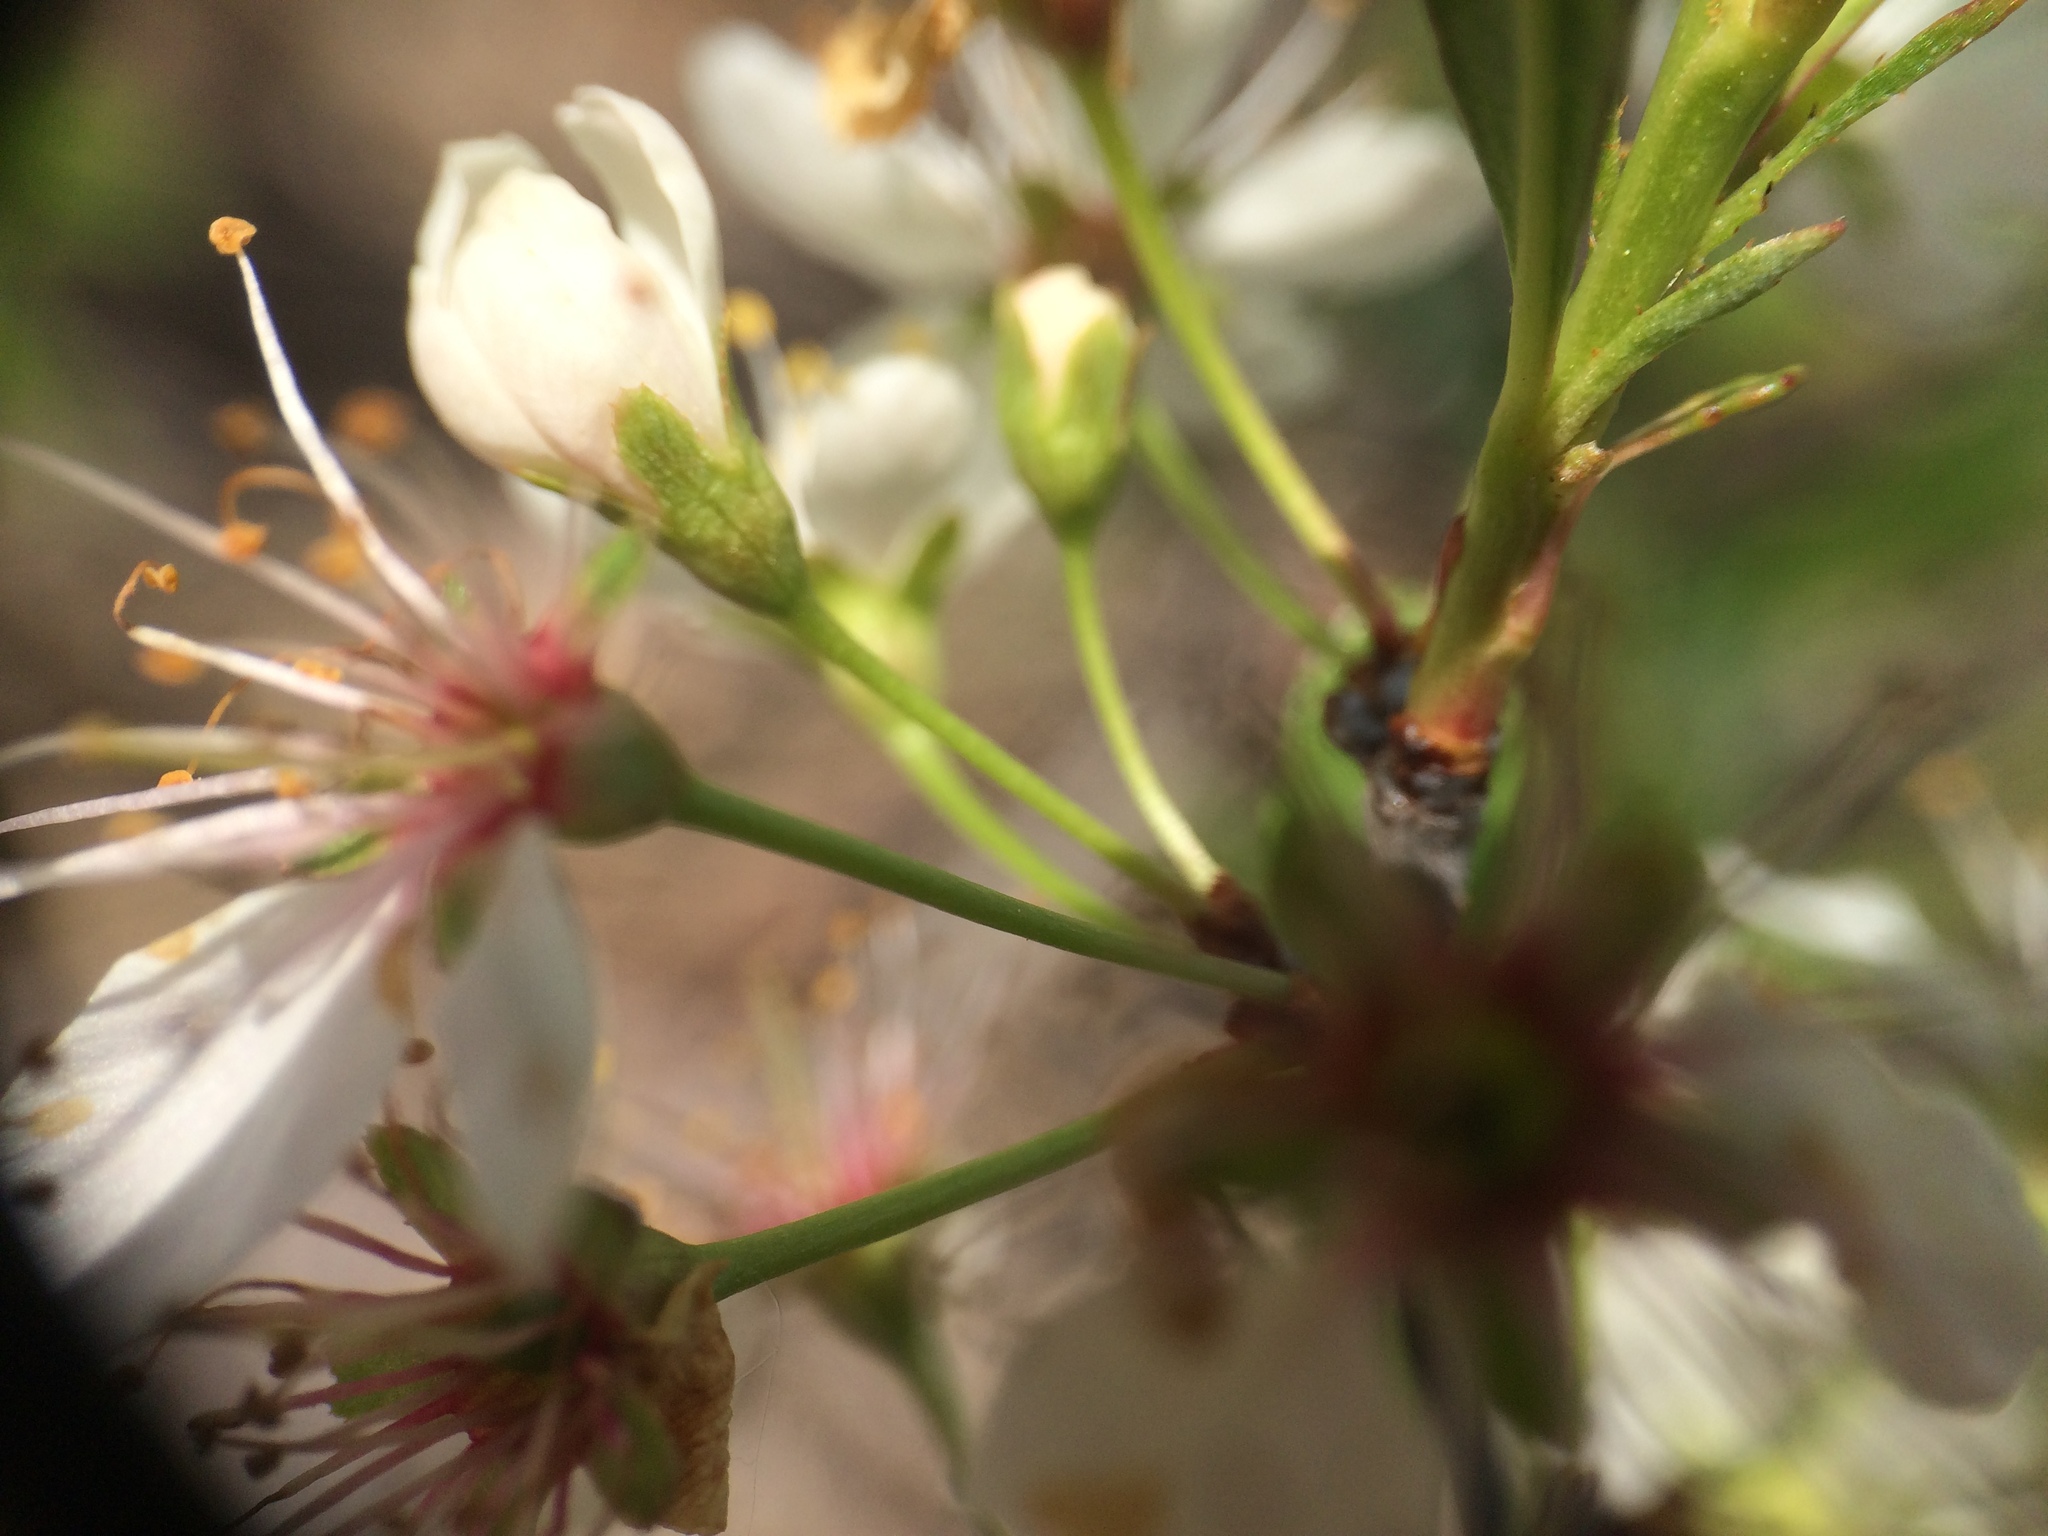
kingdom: Plantae
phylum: Tracheophyta
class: Magnoliopsida
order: Rosales
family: Rosaceae
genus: Prunus
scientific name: Prunus susquehanae
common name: Sesquehana sandcherry
